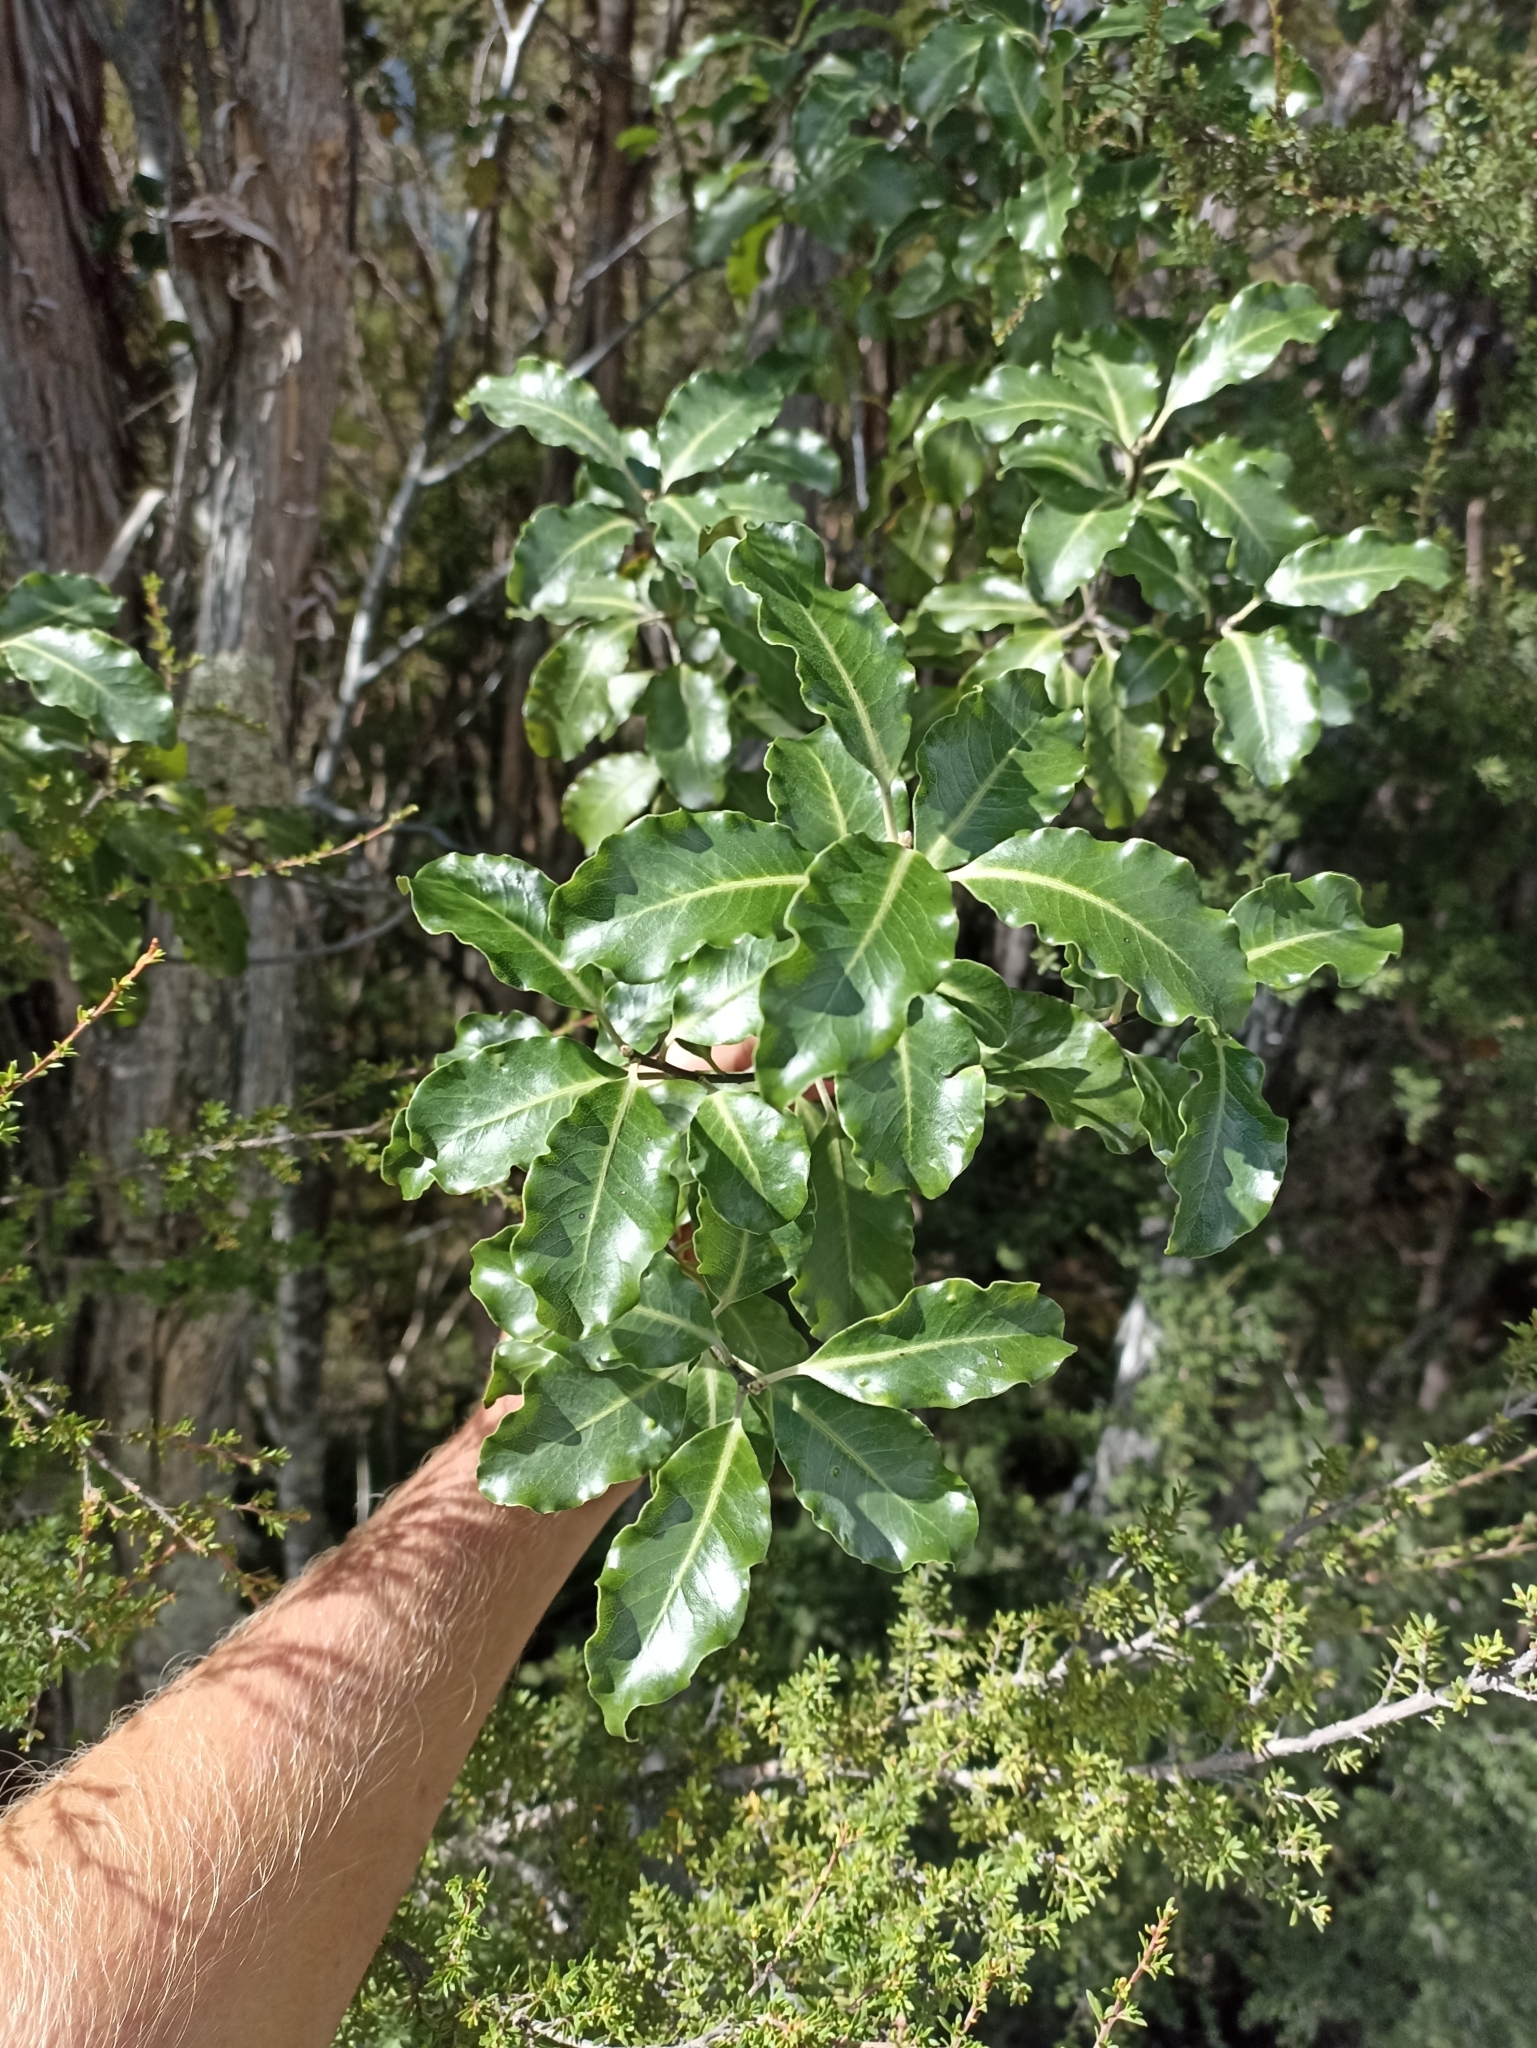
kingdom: Plantae
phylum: Tracheophyta
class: Magnoliopsida
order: Apiales
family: Pittosporaceae
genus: Pittosporum
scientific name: Pittosporum tenuifolium
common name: Kohuhu
